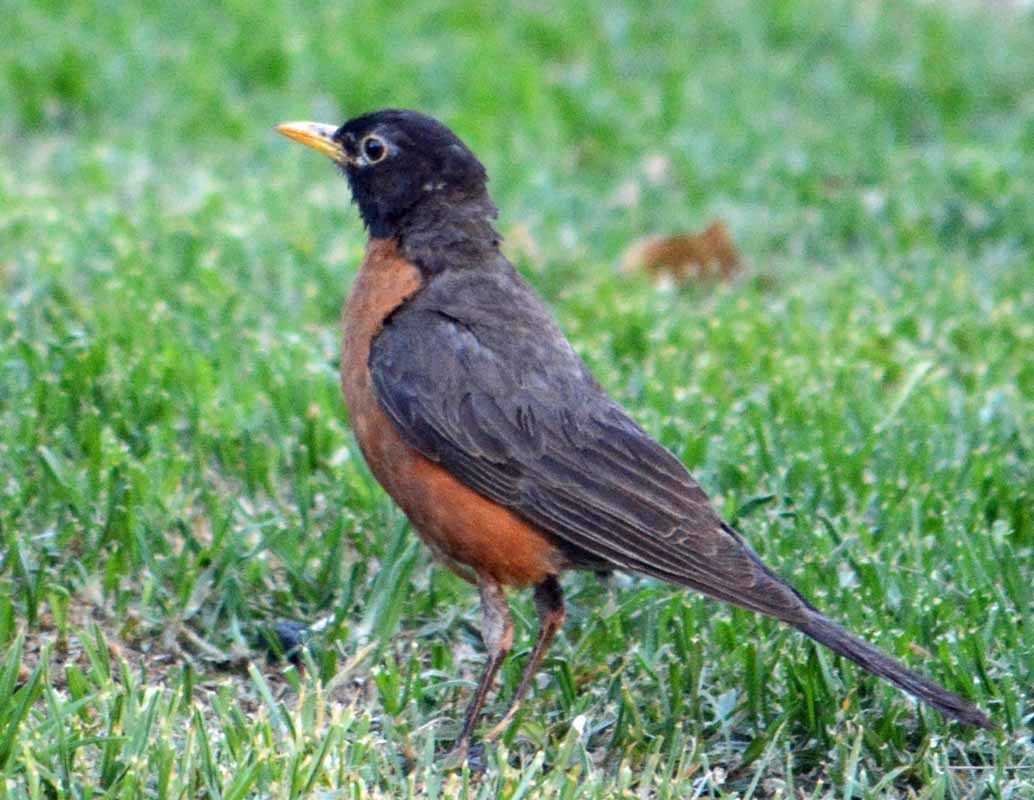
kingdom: Animalia
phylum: Chordata
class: Aves
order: Passeriformes
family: Turdidae
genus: Turdus
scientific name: Turdus migratorius
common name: American robin
